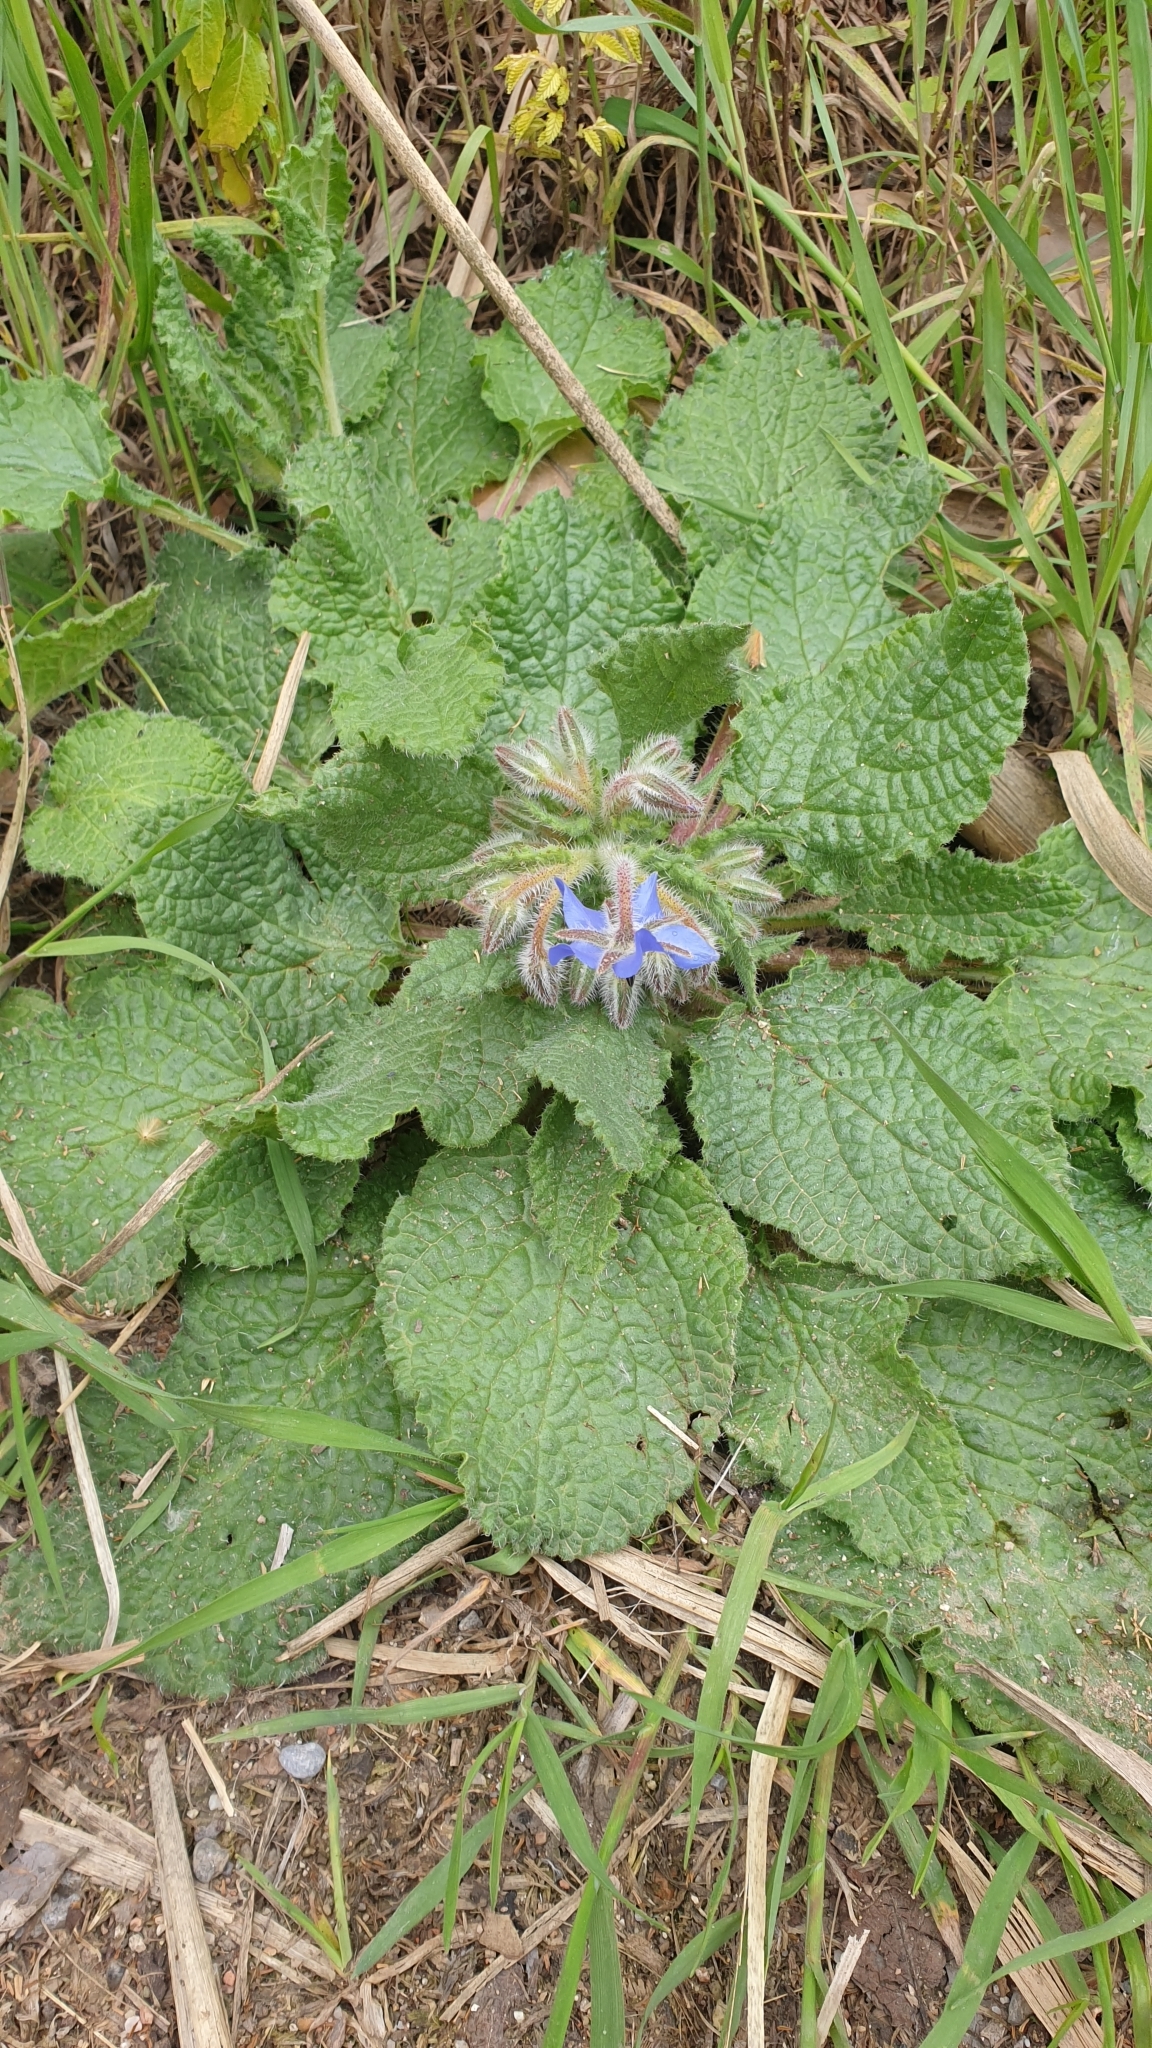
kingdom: Plantae
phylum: Tracheophyta
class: Magnoliopsida
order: Boraginales
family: Boraginaceae
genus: Borago
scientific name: Borago officinalis
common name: Borage
